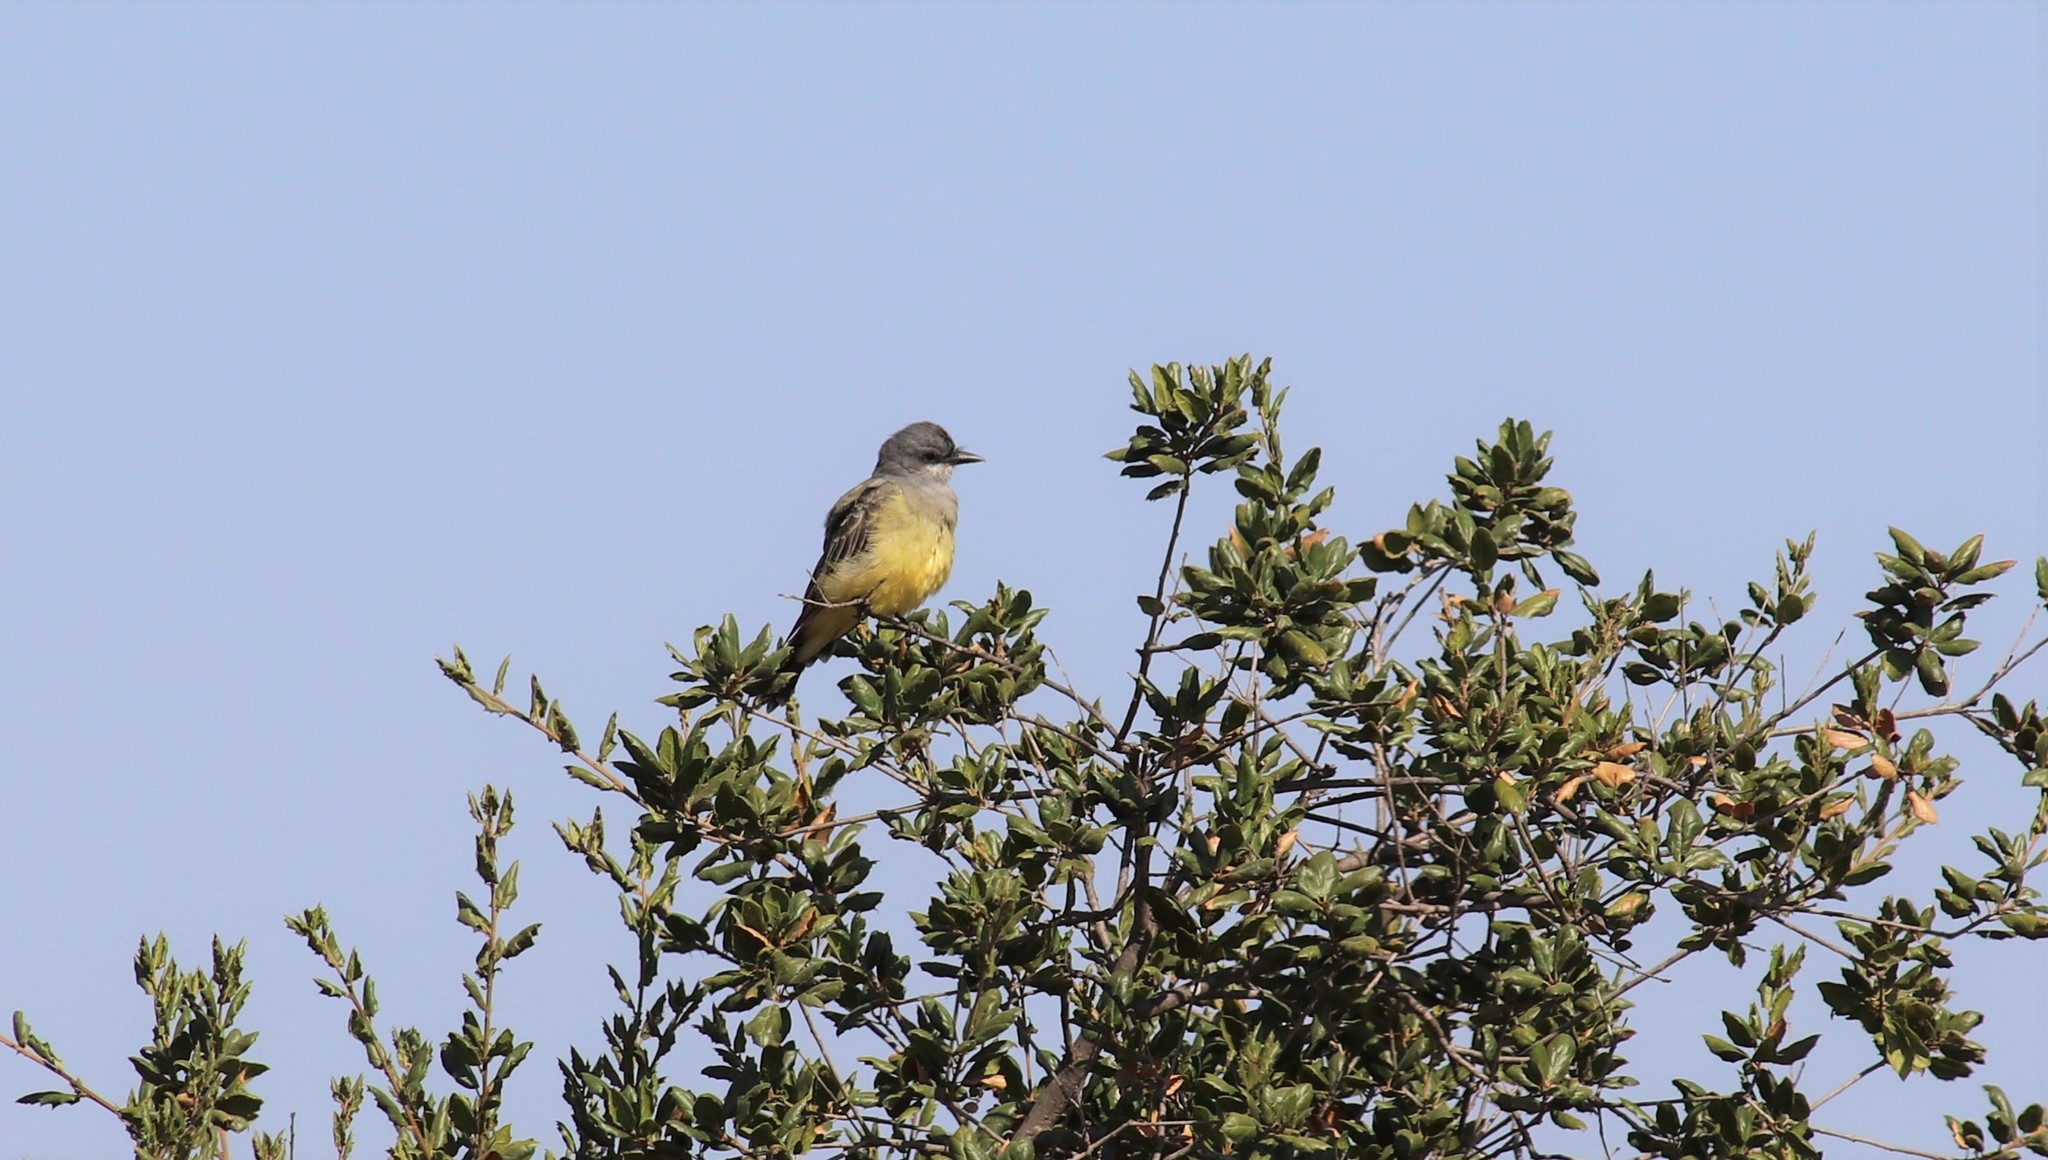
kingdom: Animalia
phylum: Chordata
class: Aves
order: Passeriformes
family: Tyrannidae
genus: Tyrannus
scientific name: Tyrannus vociferans
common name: Cassin's kingbird
